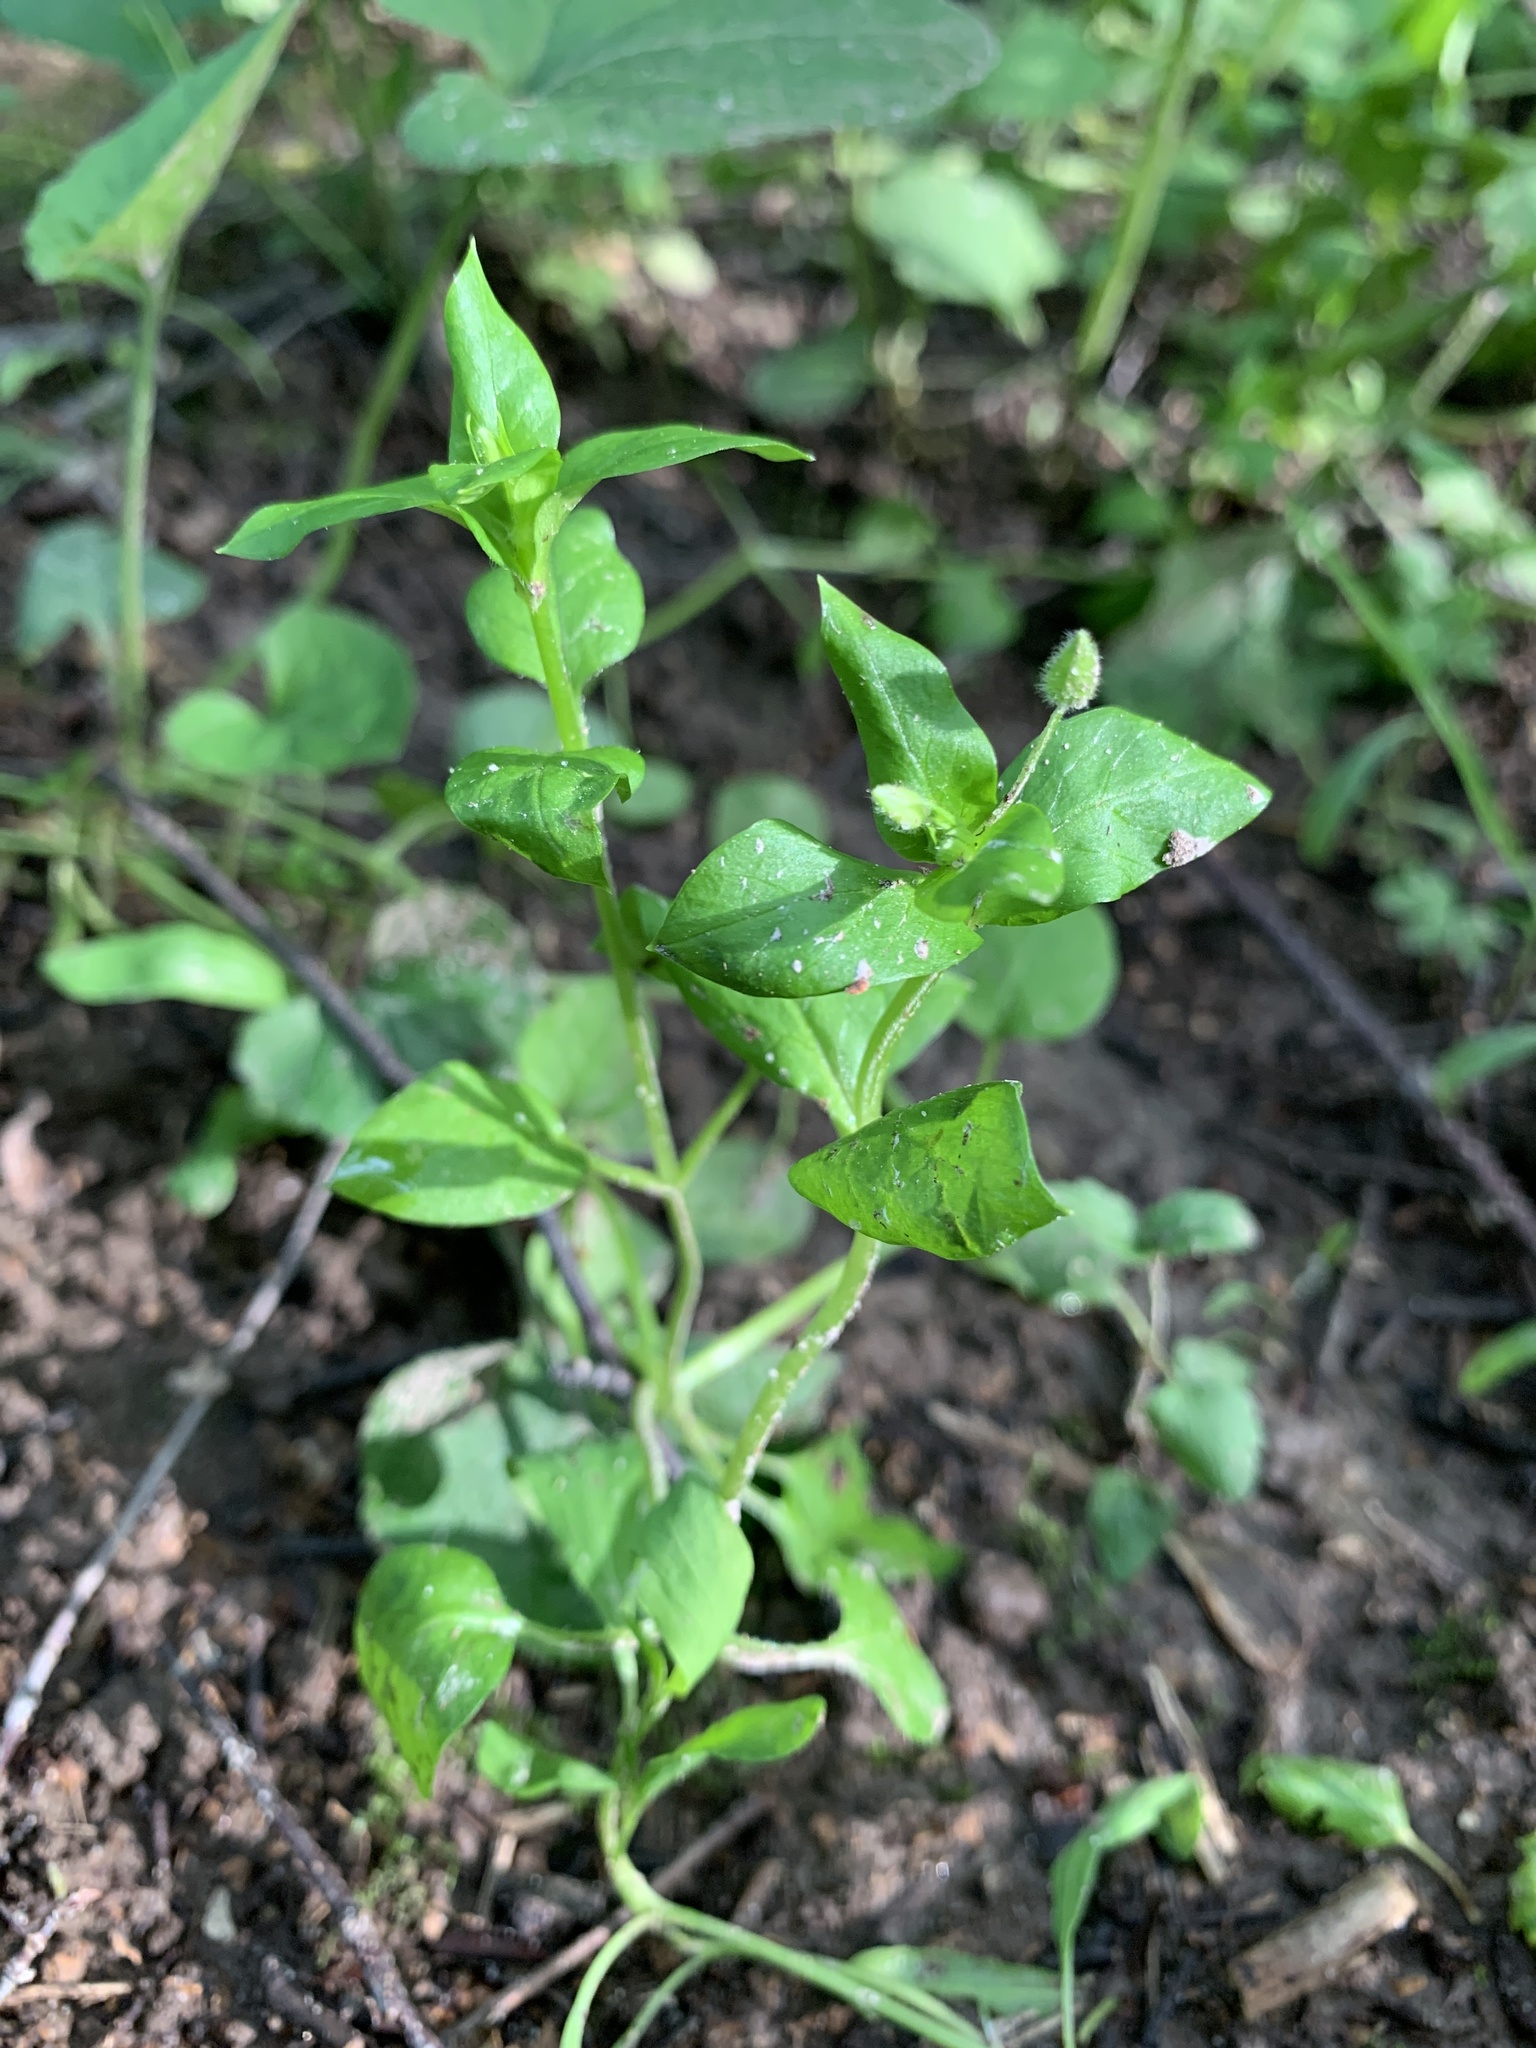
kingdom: Plantae
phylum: Tracheophyta
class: Magnoliopsida
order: Caryophyllales
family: Caryophyllaceae
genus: Stellaria
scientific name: Stellaria media
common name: Common chickweed
